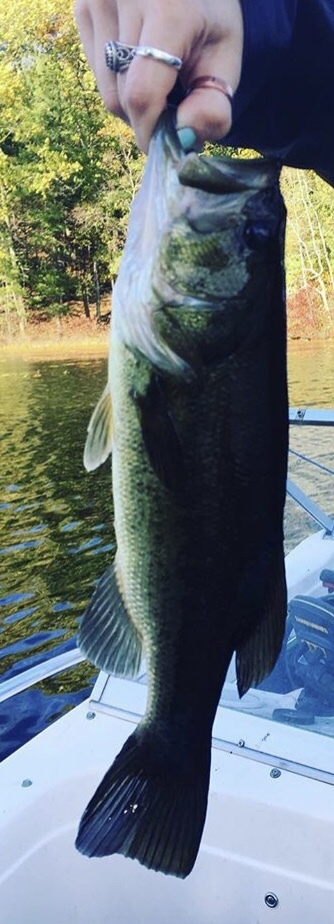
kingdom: Animalia
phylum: Chordata
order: Perciformes
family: Centrarchidae
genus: Micropterus
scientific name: Micropterus
